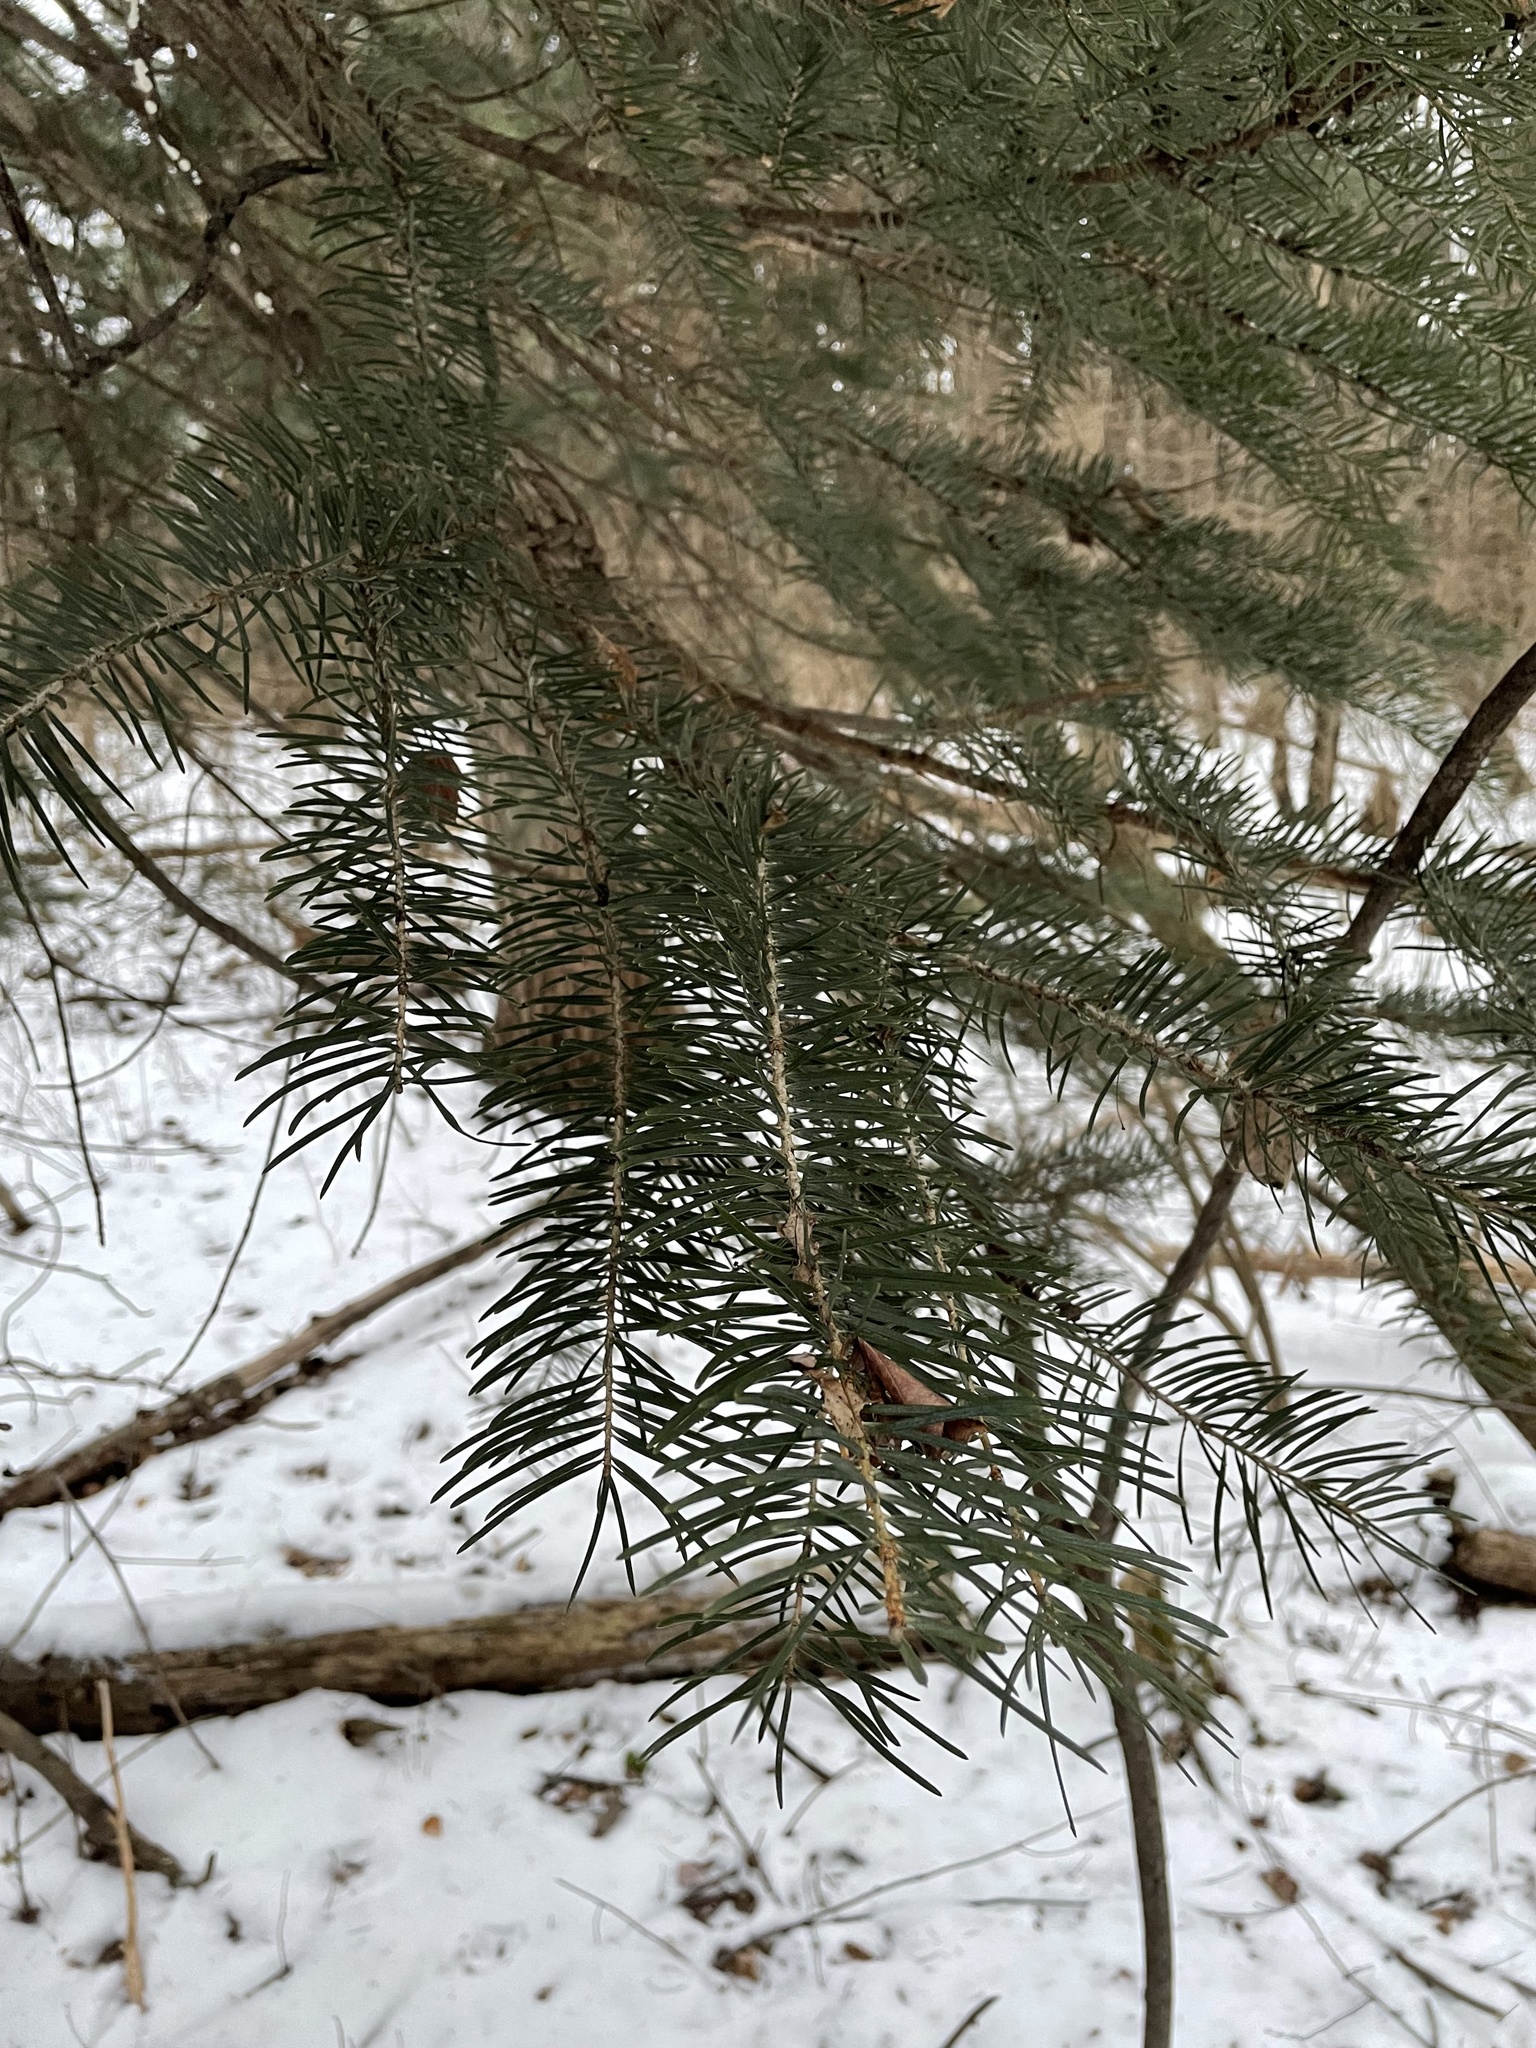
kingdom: Plantae
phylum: Tracheophyta
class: Pinopsida
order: Pinales
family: Pinaceae
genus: Abies
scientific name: Abies concolor
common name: Colorado fir
